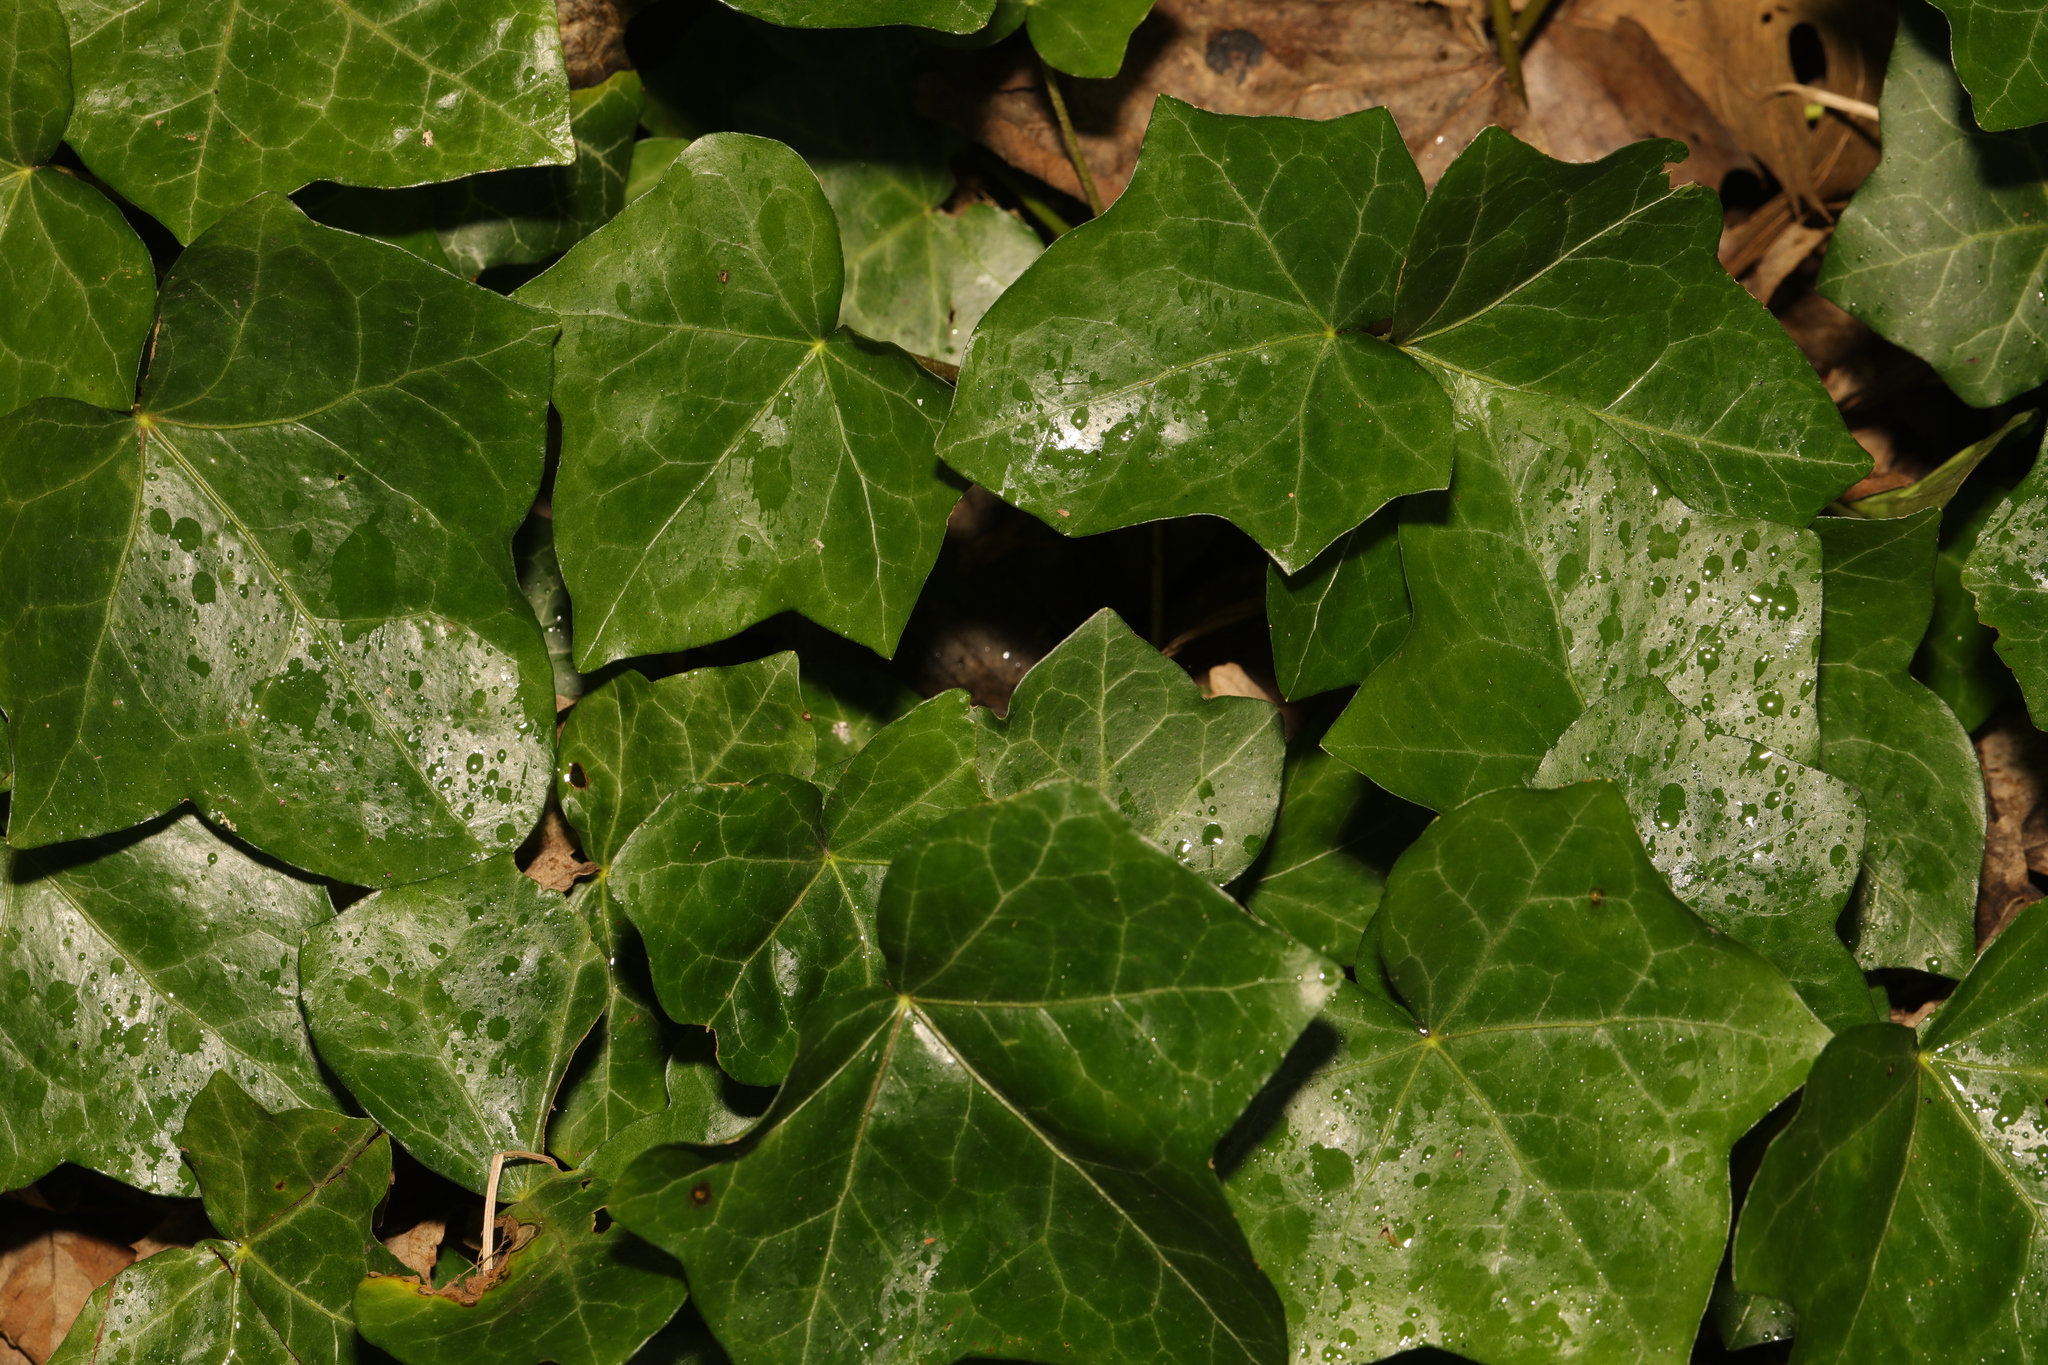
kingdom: Plantae
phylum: Tracheophyta
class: Magnoliopsida
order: Apiales
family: Araliaceae
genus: Hedera
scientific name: Hedera helix
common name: Ivy
